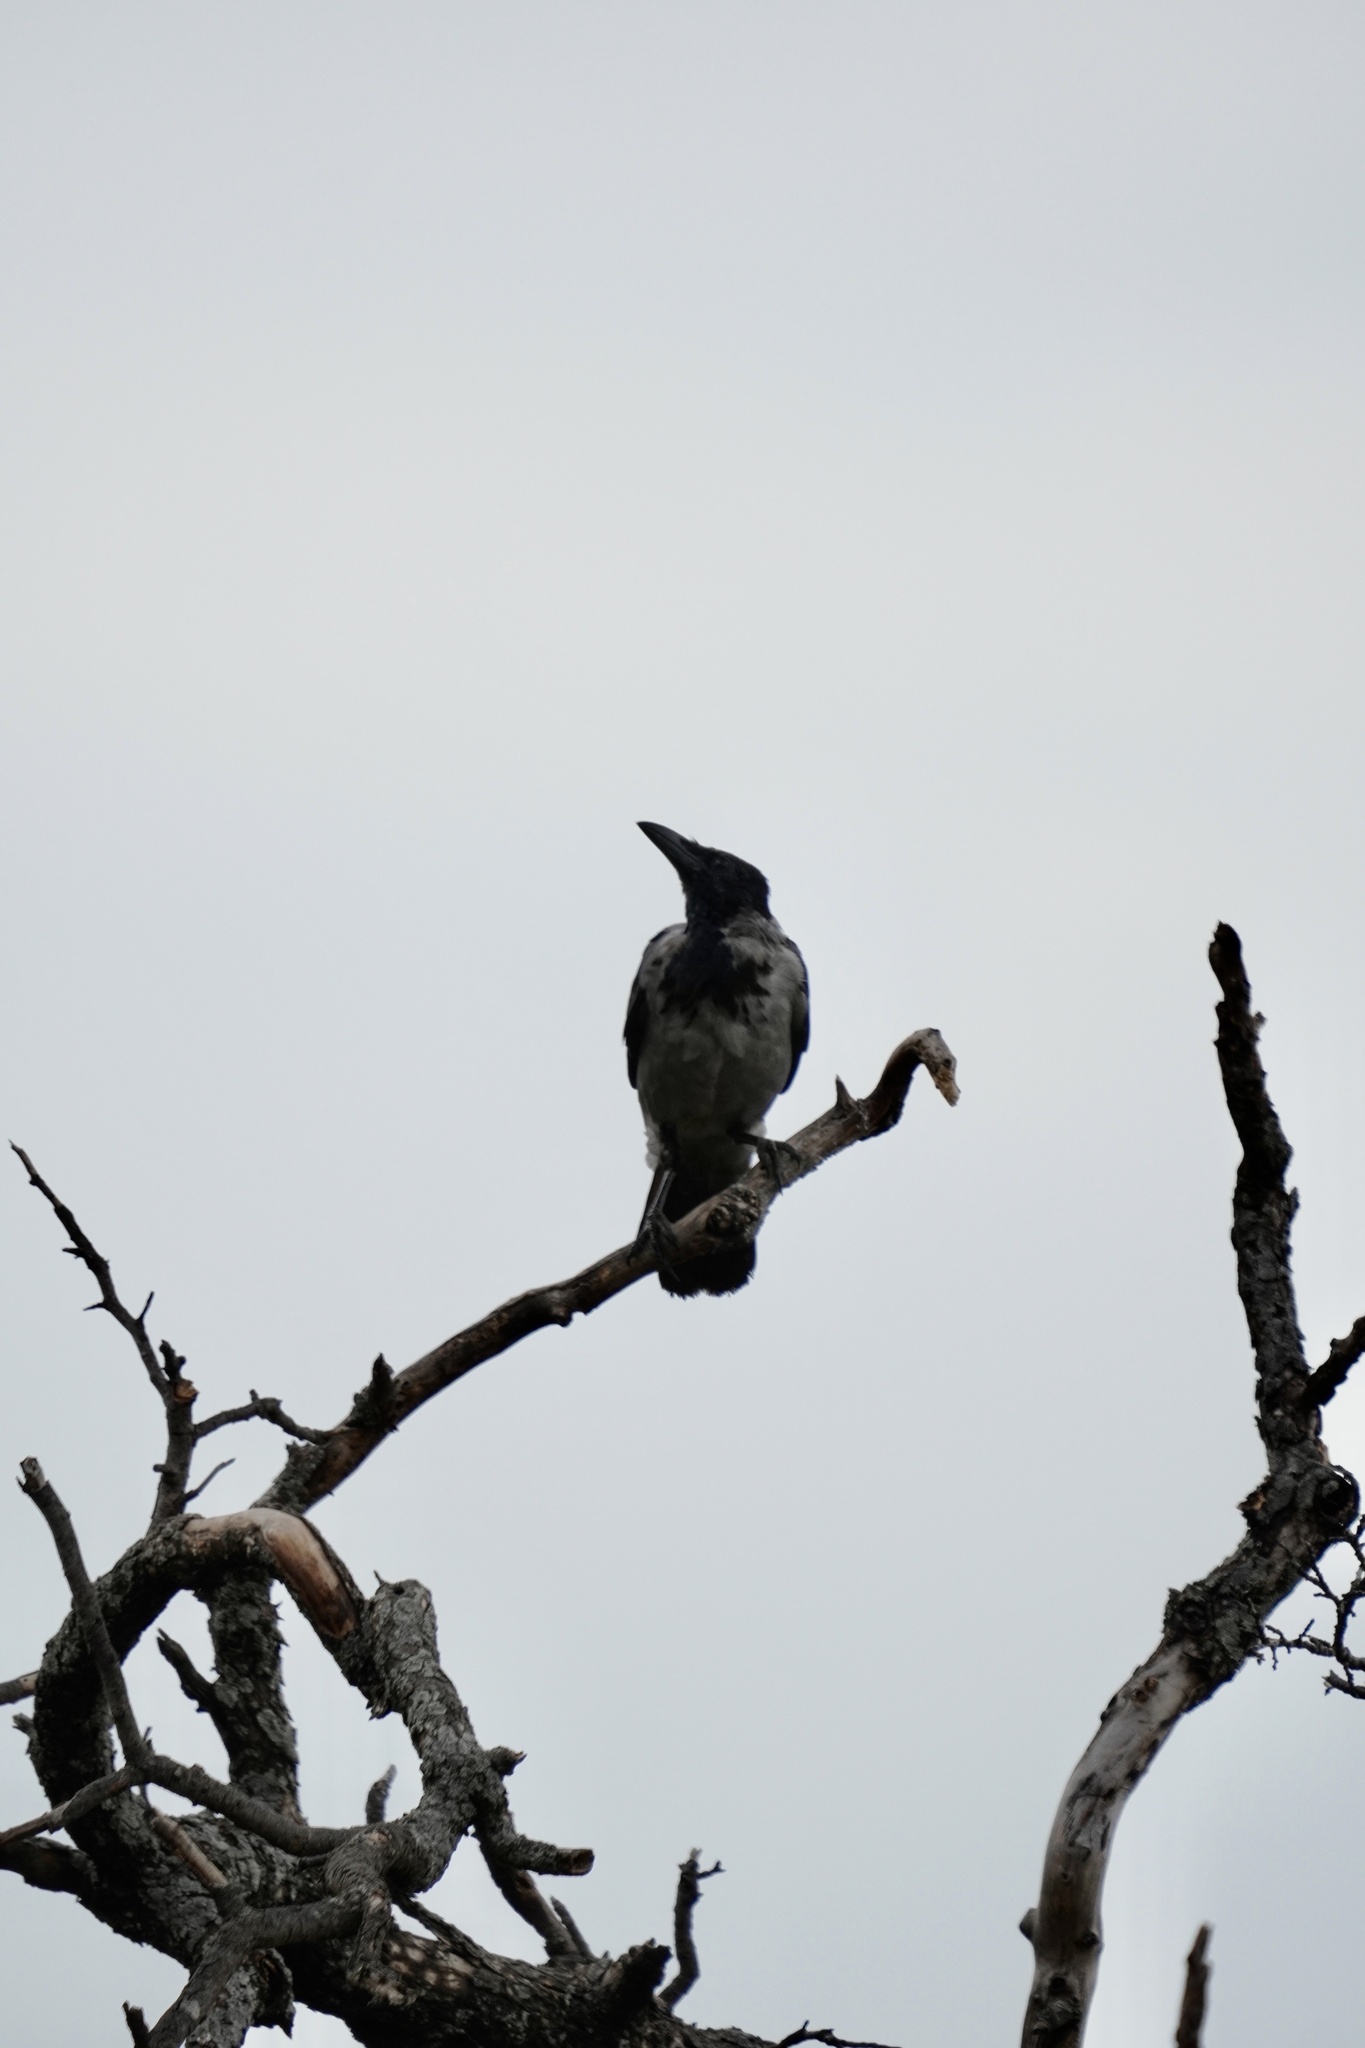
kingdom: Animalia
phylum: Chordata
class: Aves
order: Passeriformes
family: Corvidae
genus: Corvus
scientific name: Corvus cornix
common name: Hooded crow
